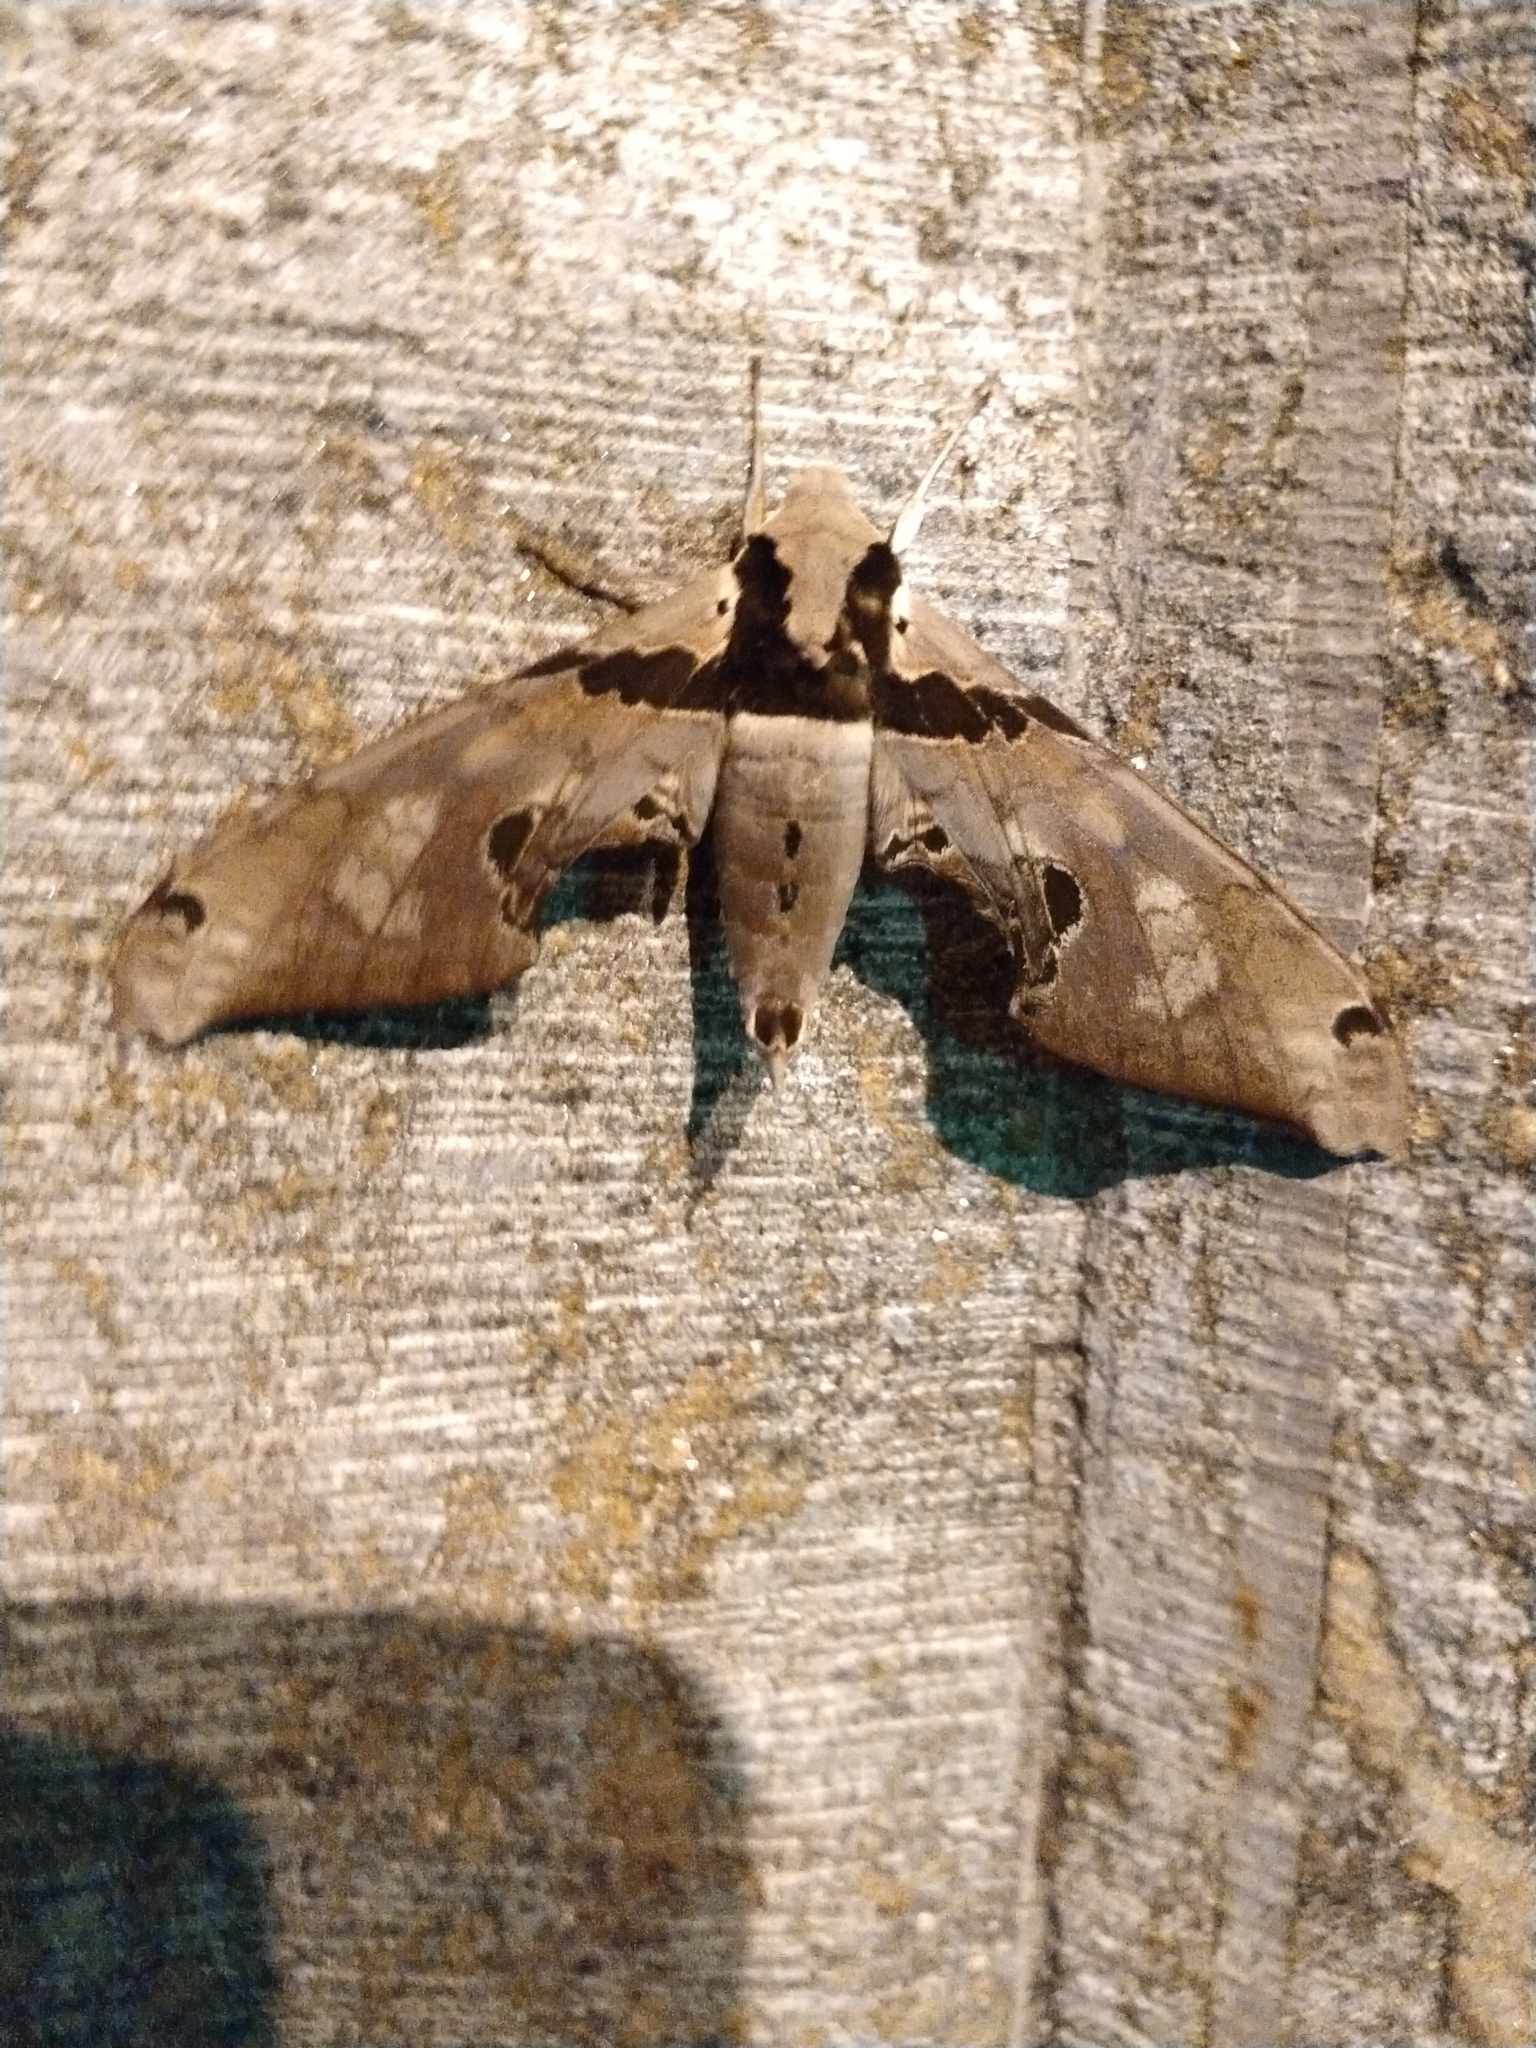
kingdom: Animalia
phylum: Arthropoda
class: Insecta
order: Lepidoptera
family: Sphingidae
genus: Adhemarius
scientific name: Adhemarius gannascus
